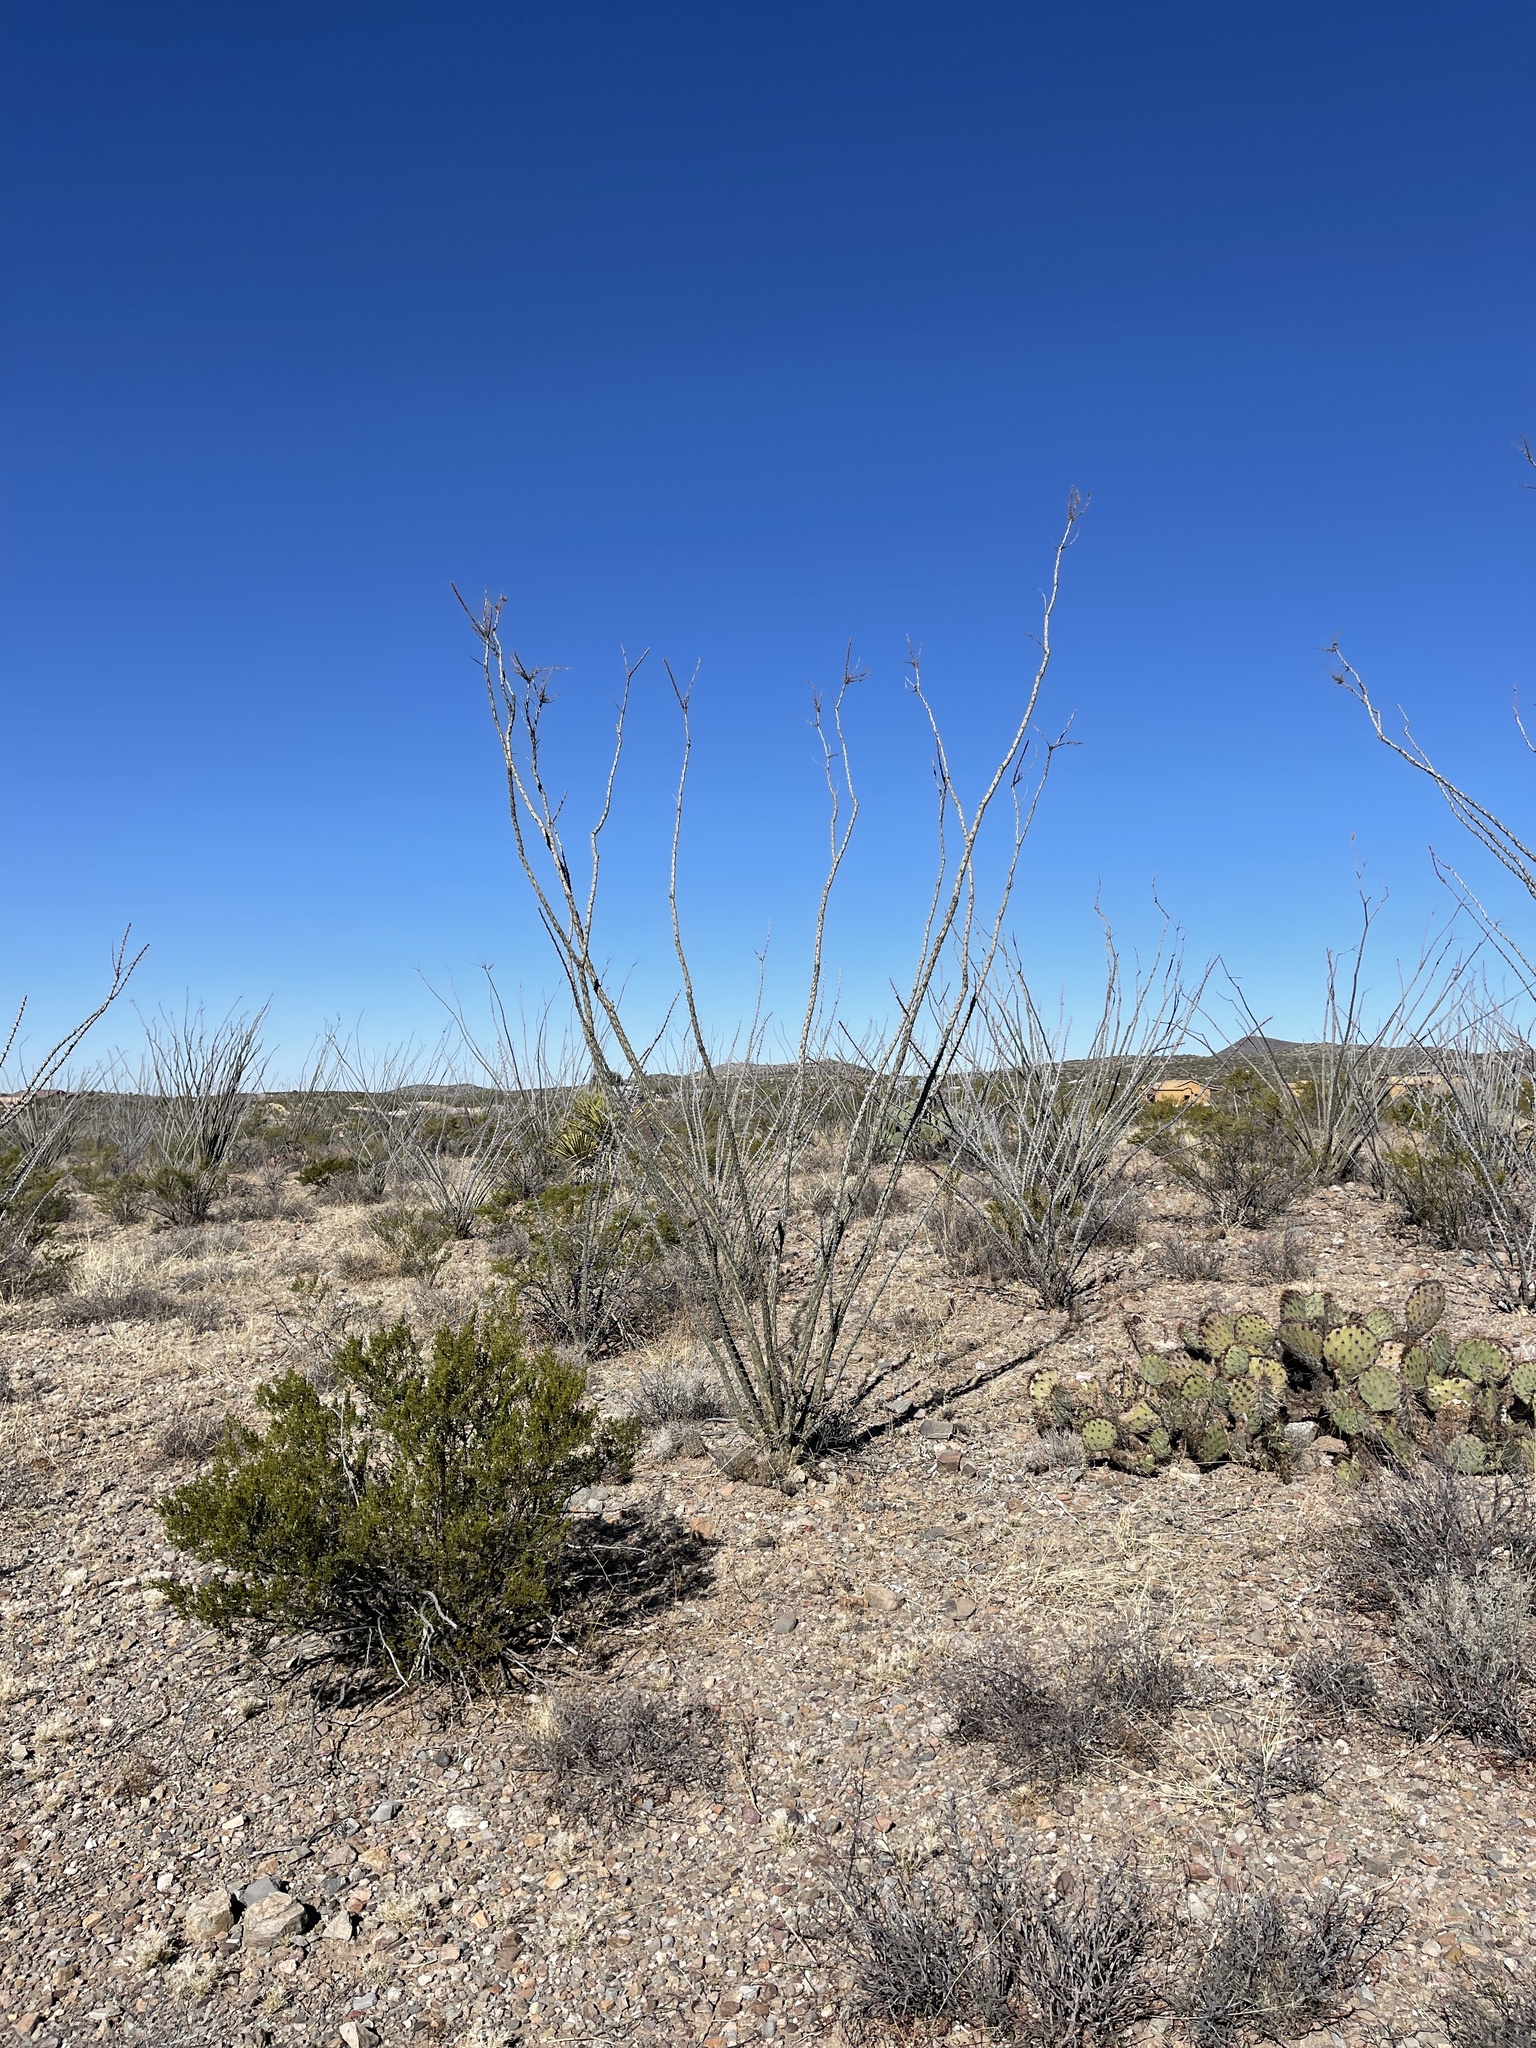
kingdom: Plantae
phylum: Tracheophyta
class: Magnoliopsida
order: Ericales
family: Fouquieriaceae
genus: Fouquieria
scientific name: Fouquieria splendens
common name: Vine-cactus
